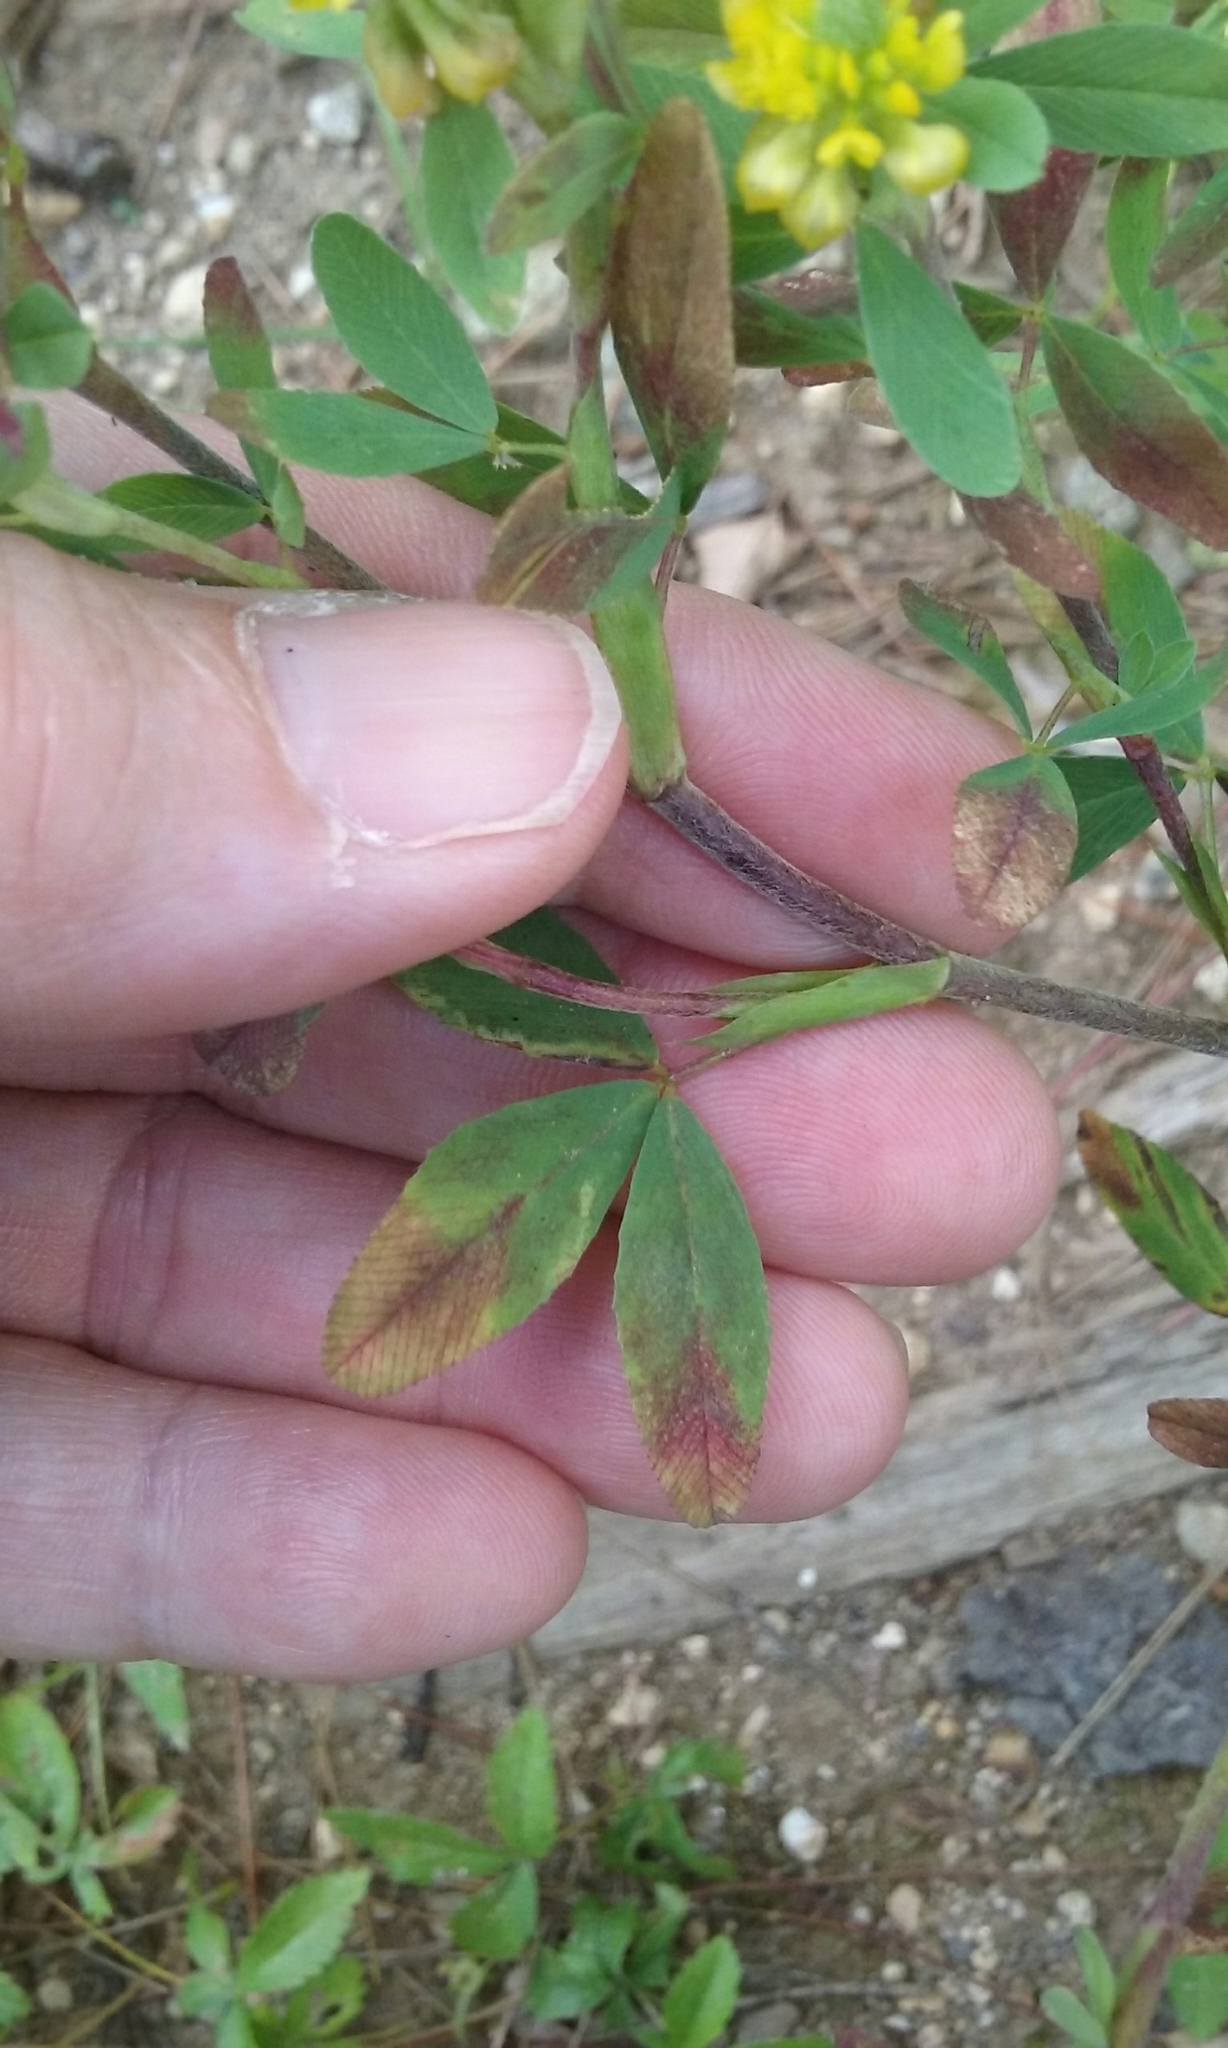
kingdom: Plantae
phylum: Tracheophyta
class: Magnoliopsida
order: Fabales
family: Fabaceae
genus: Trifolium
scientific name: Trifolium aureum
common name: Golden clover
